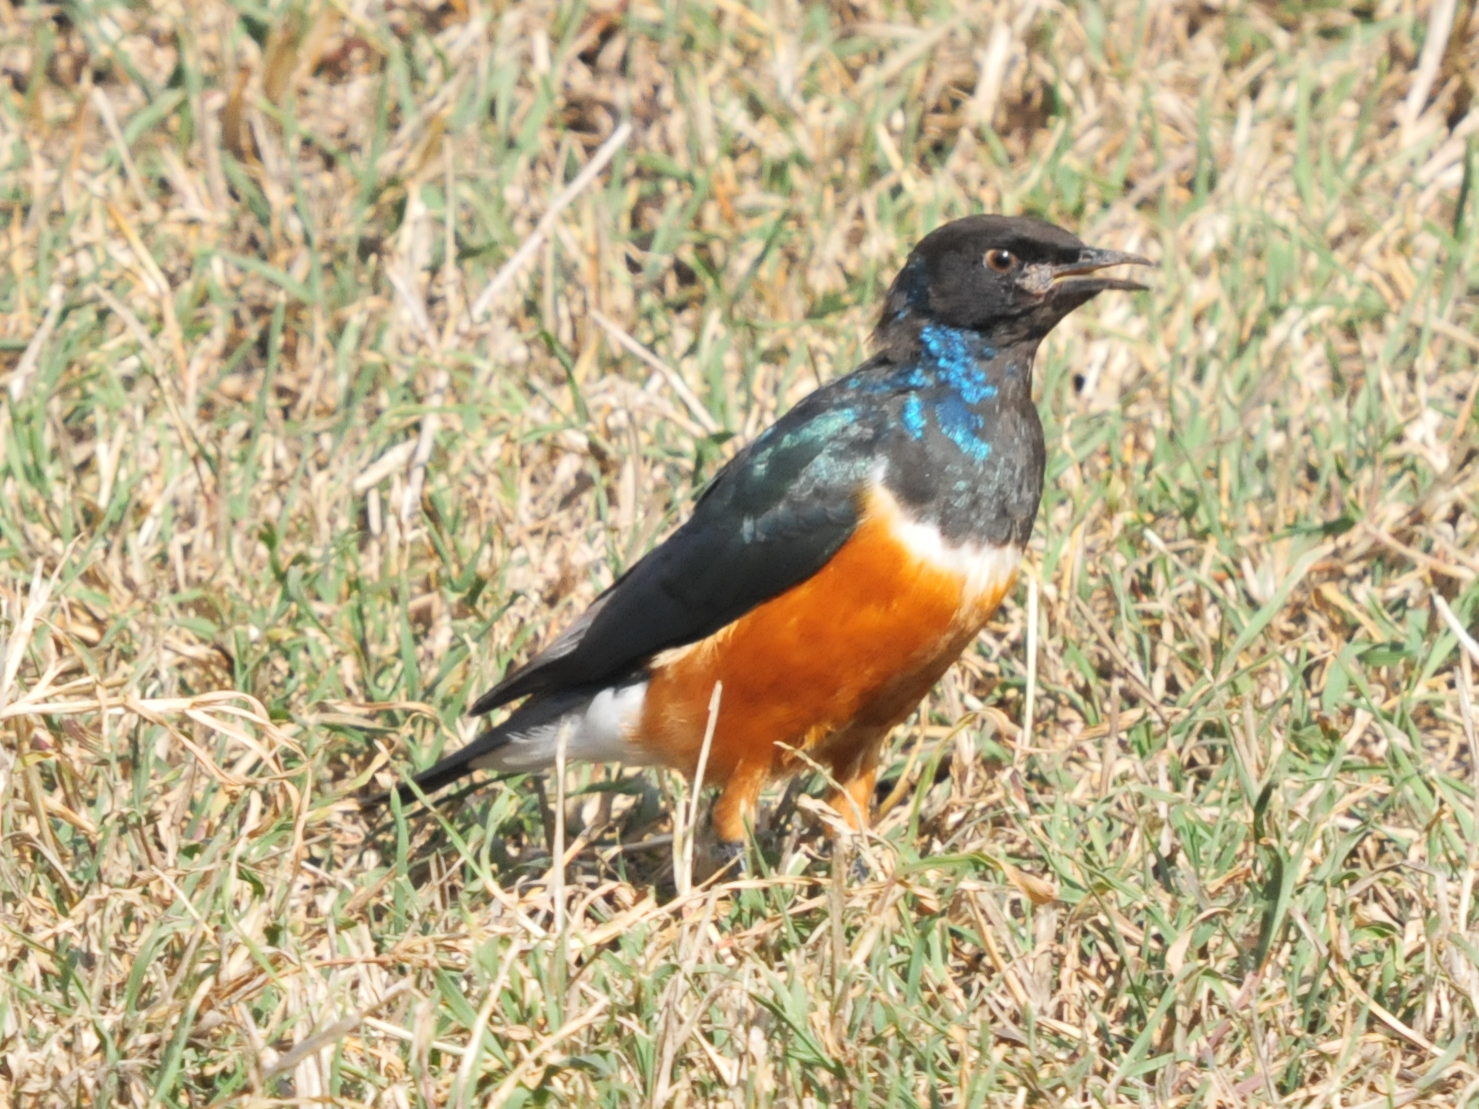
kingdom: Animalia
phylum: Chordata
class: Aves
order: Passeriformes
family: Sturnidae
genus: Lamprotornis
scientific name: Lamprotornis superbus
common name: Superb starling
